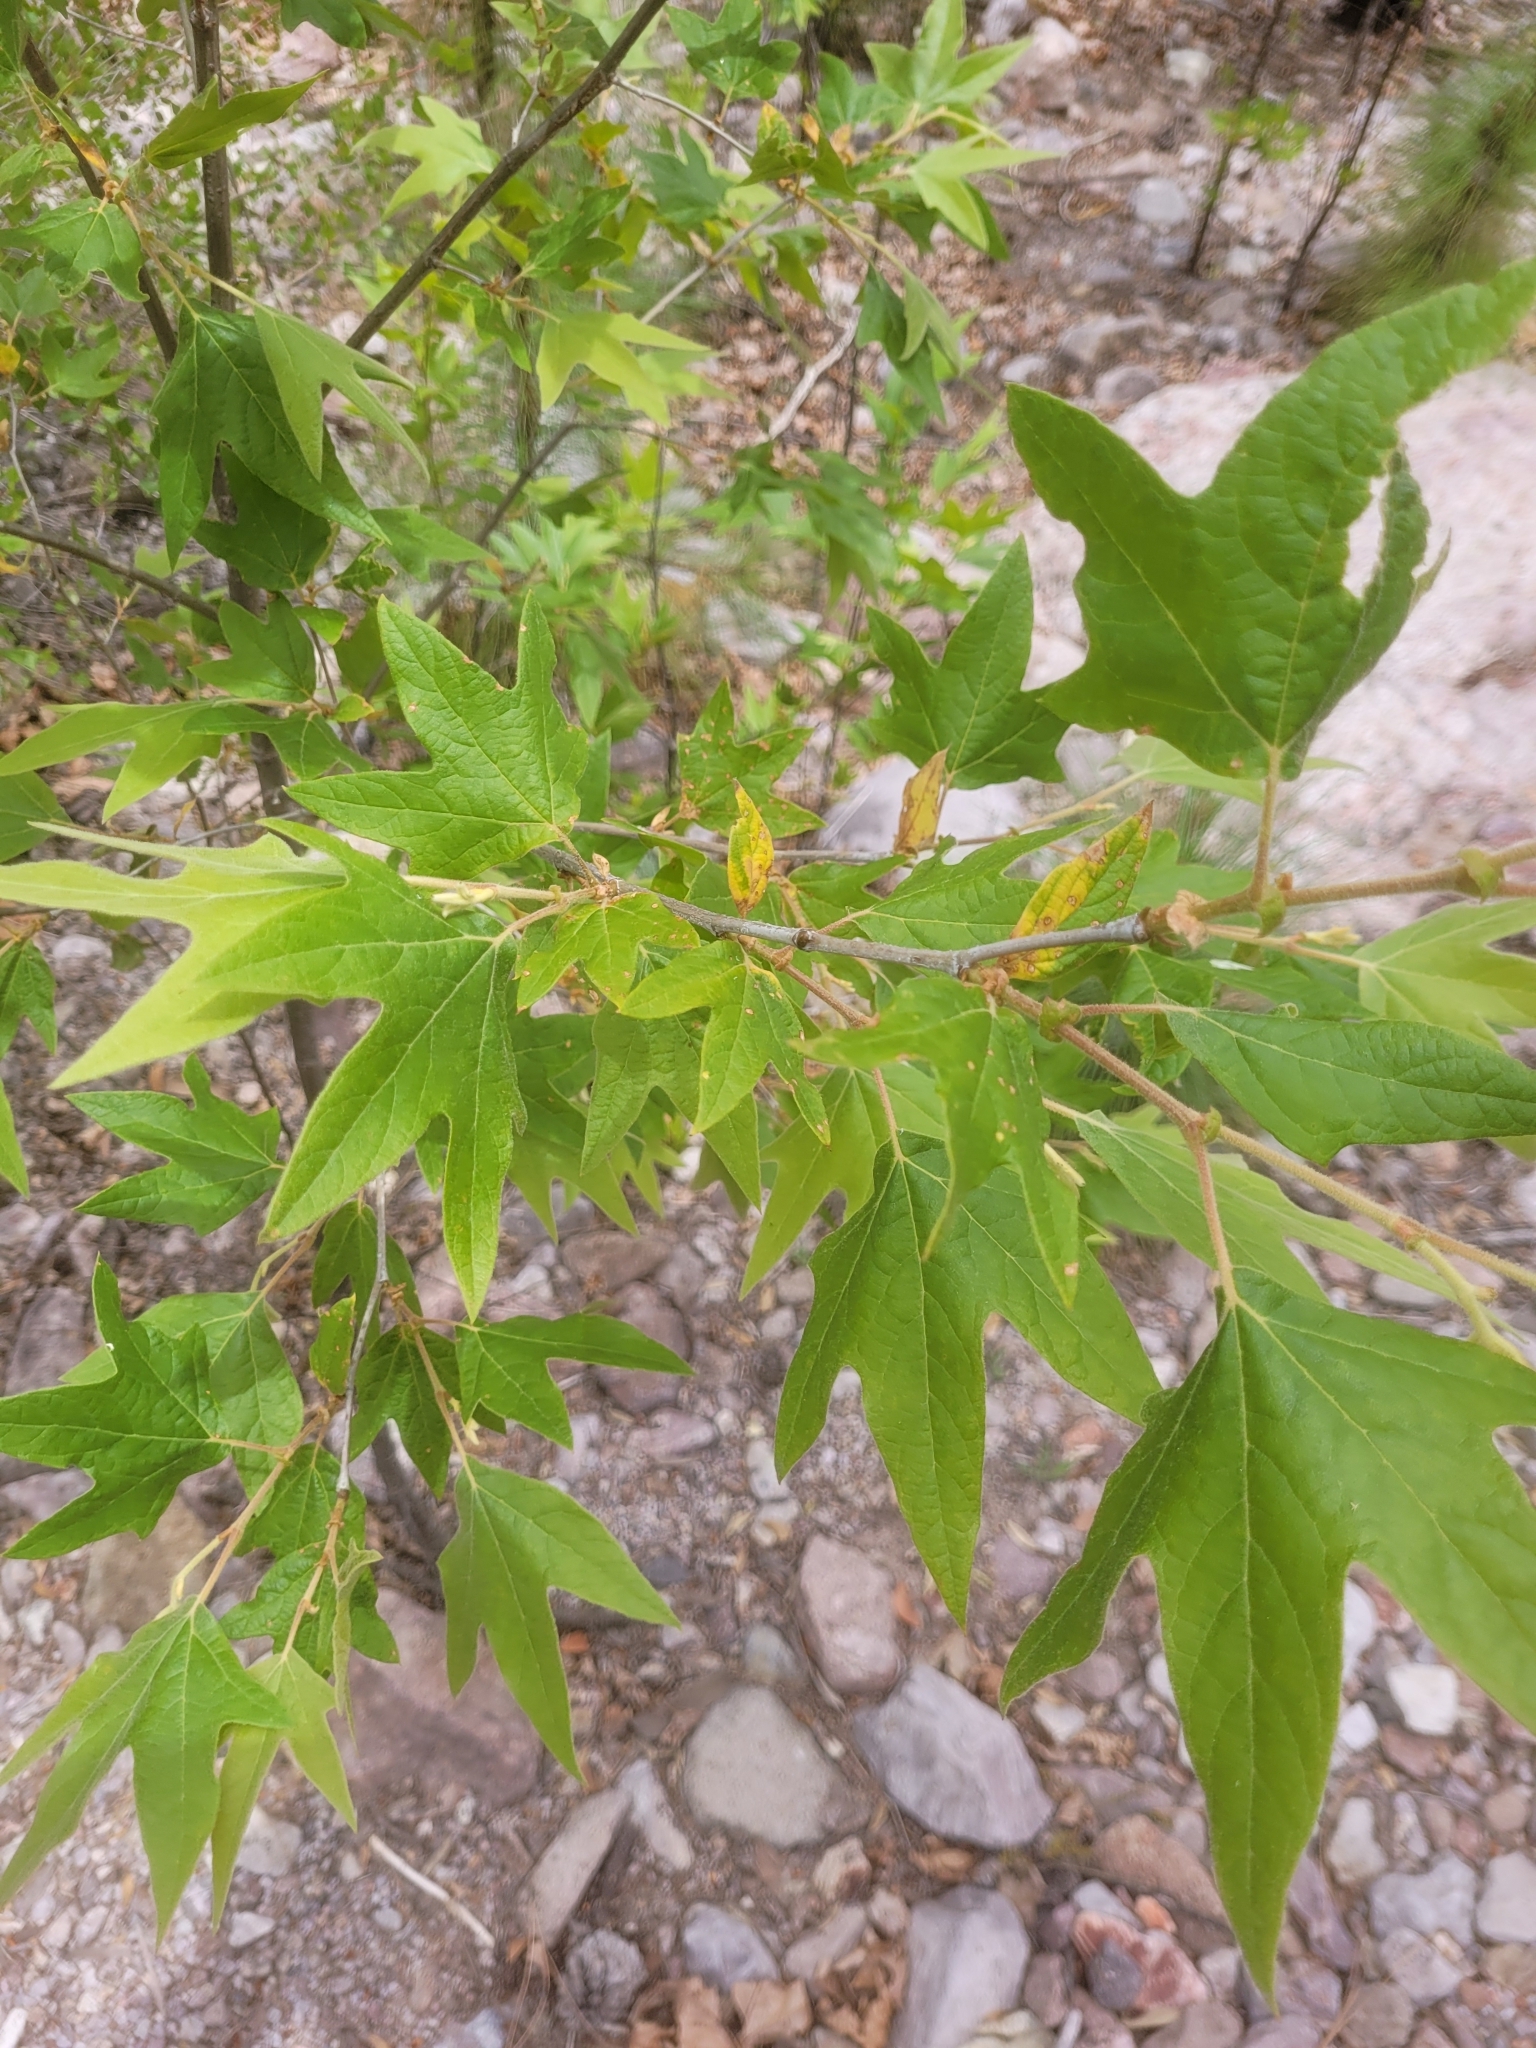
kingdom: Plantae
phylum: Tracheophyta
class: Magnoliopsida
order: Proteales
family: Platanaceae
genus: Platanus
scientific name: Platanus wrightii
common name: Arizona sycamore
